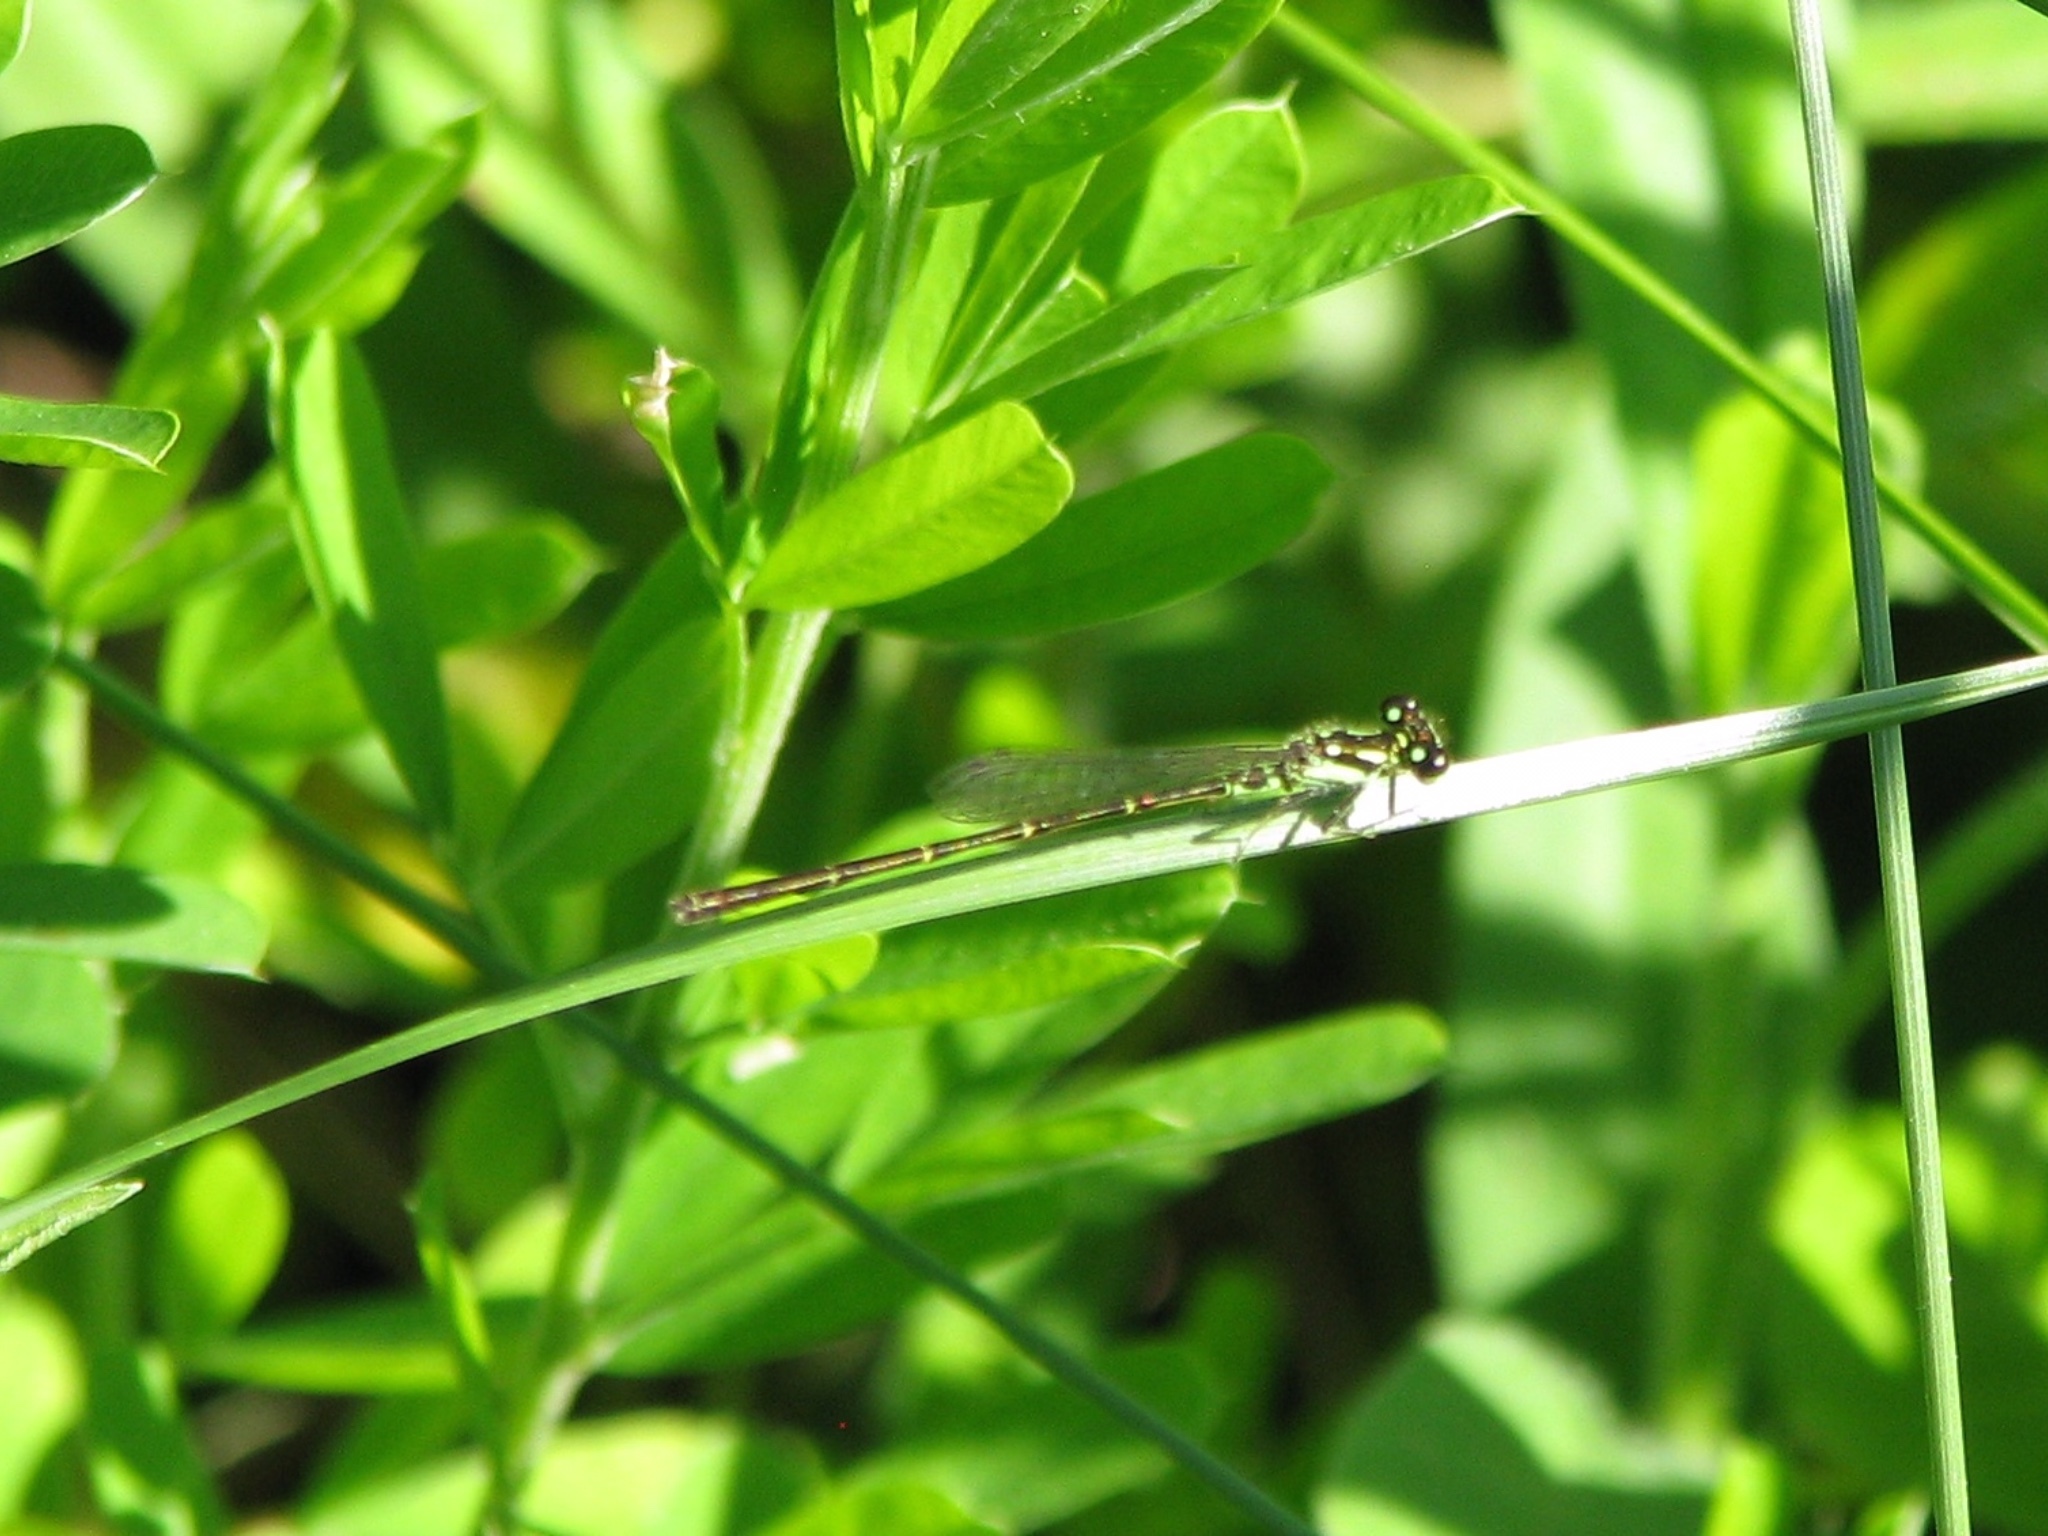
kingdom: Animalia
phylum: Arthropoda
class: Insecta
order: Odonata
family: Coenagrionidae
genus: Ischnura
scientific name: Ischnura posita
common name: Fragile forktail
